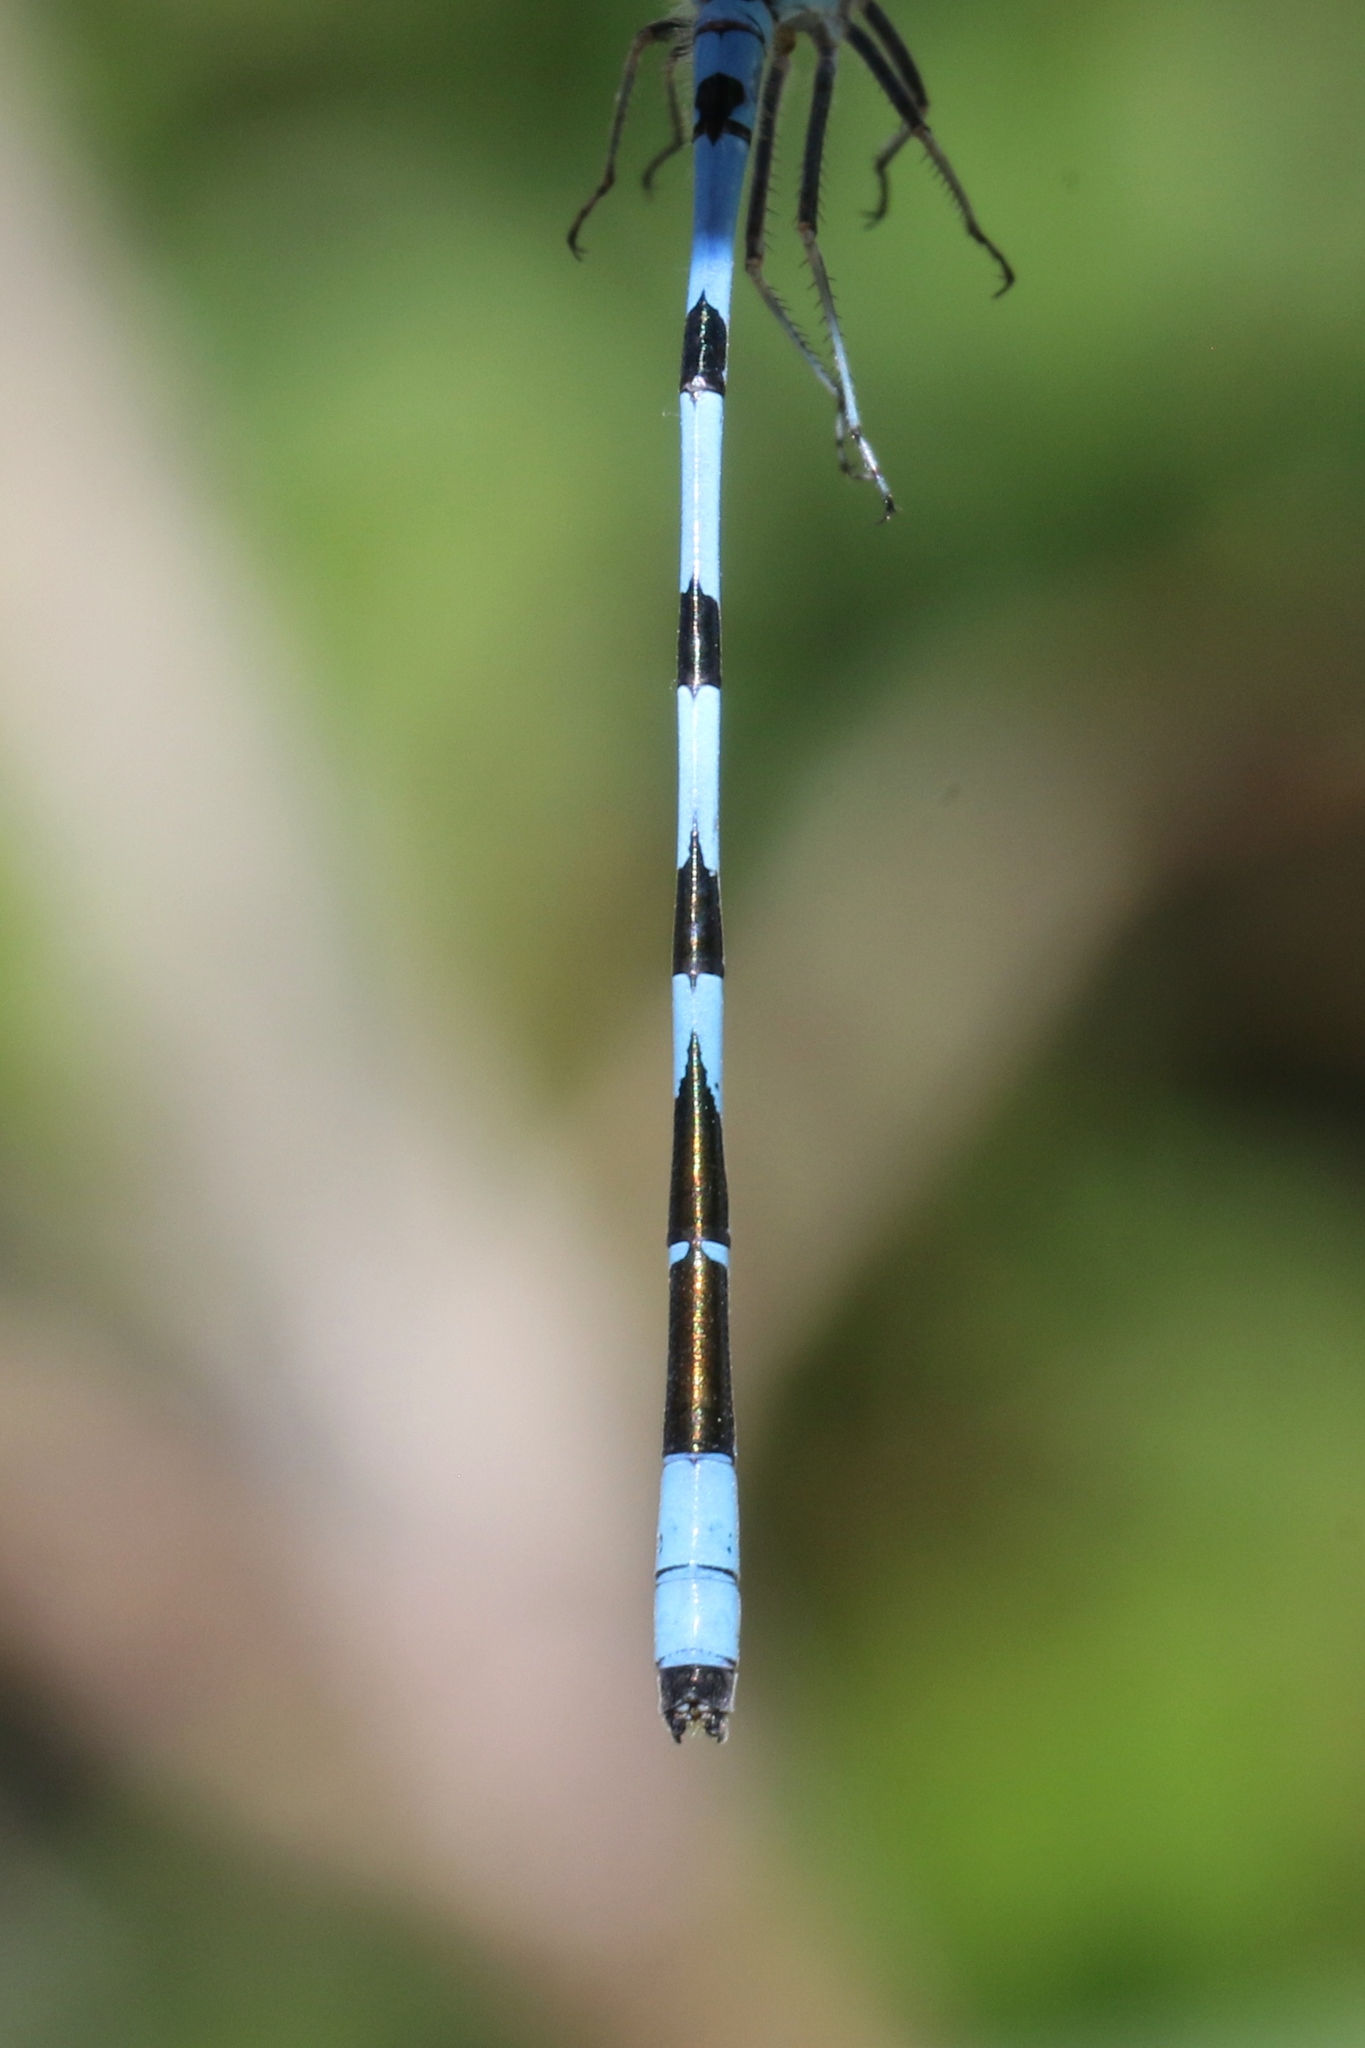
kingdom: Animalia
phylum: Arthropoda
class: Insecta
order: Odonata
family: Coenagrionidae
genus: Enallagma
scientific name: Enallagma hageni
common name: Hagen's bluet
